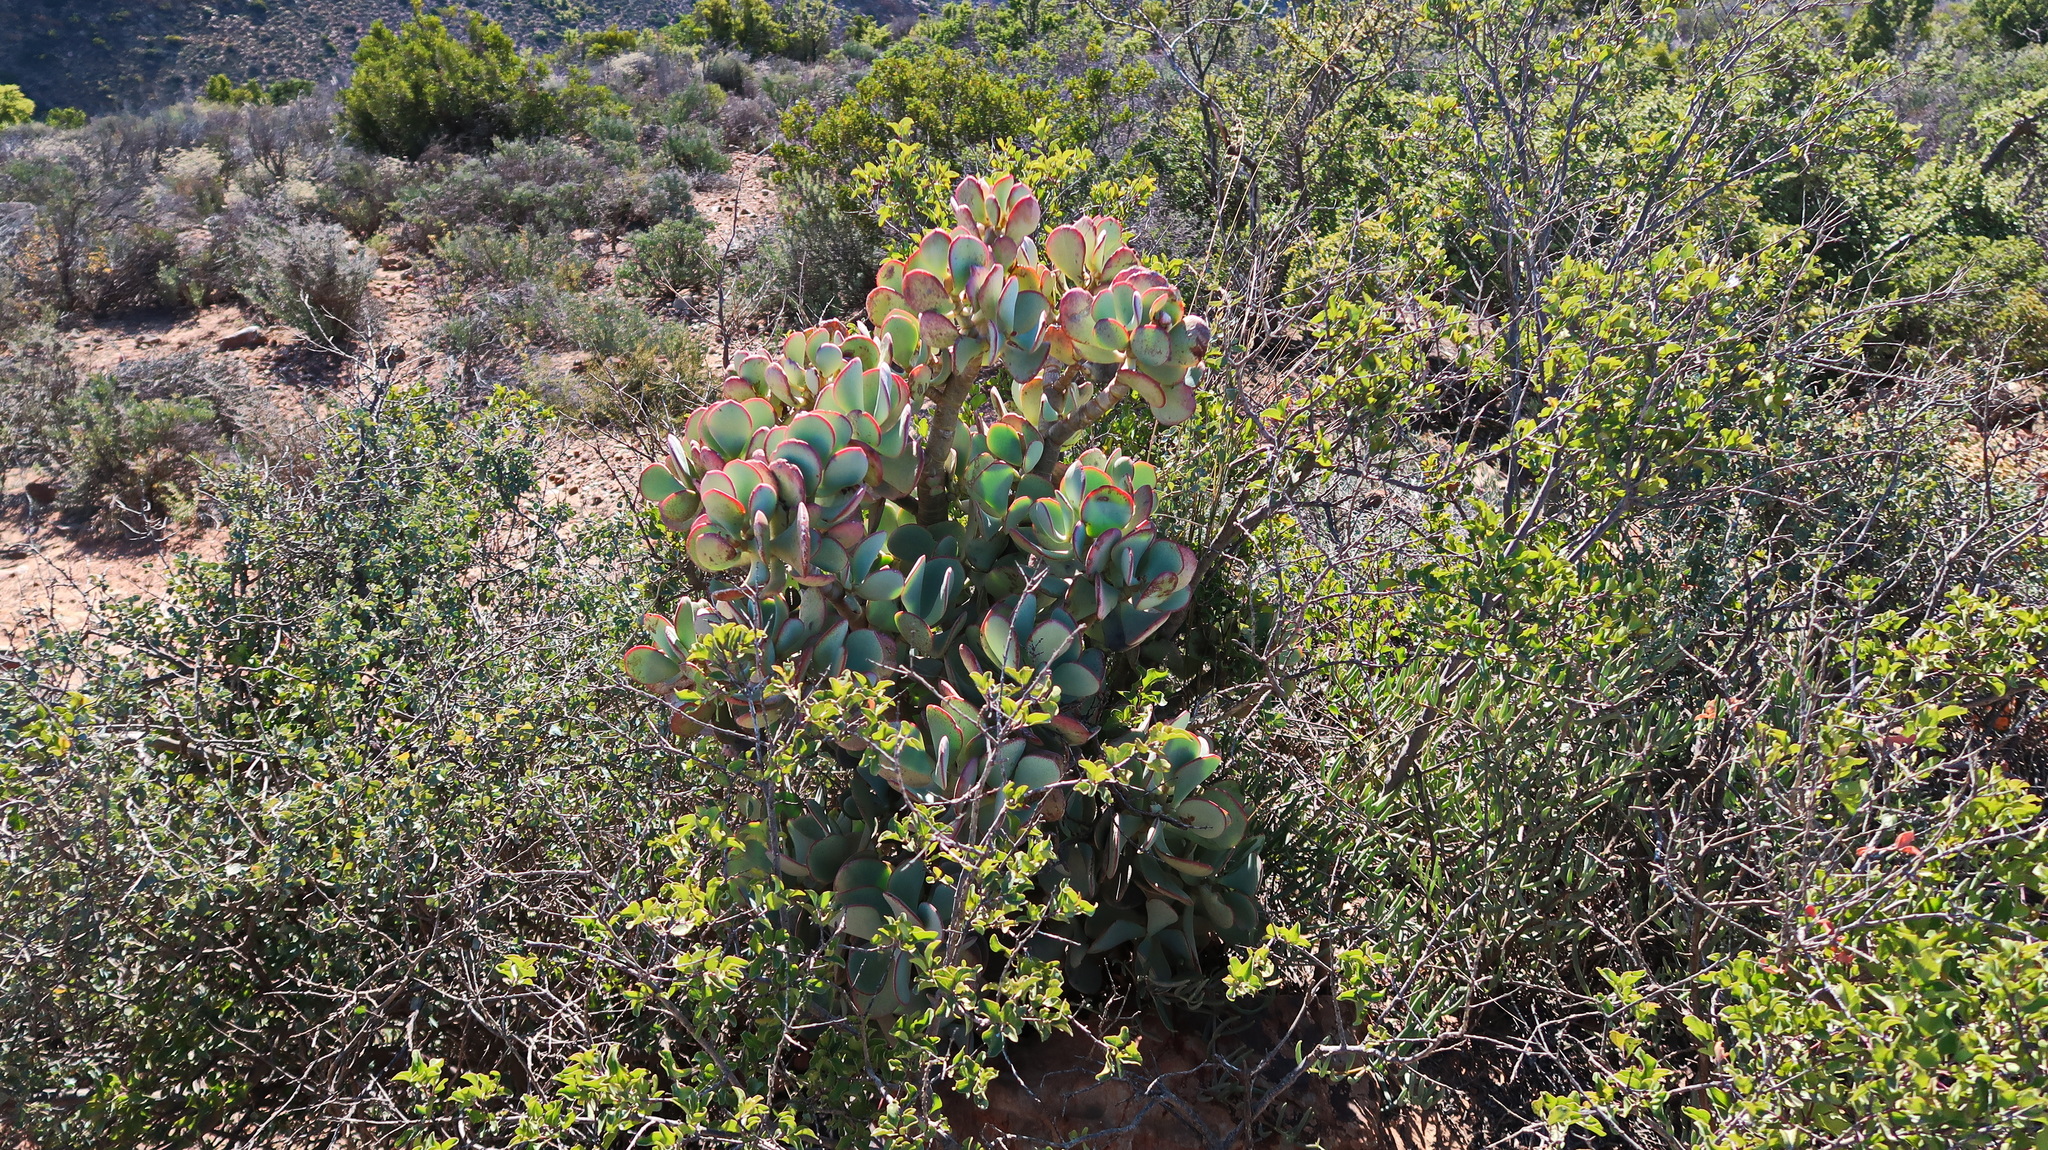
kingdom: Plantae
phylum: Tracheophyta
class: Magnoliopsida
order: Saxifragales
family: Crassulaceae
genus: Crassula
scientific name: Crassula arborescens
